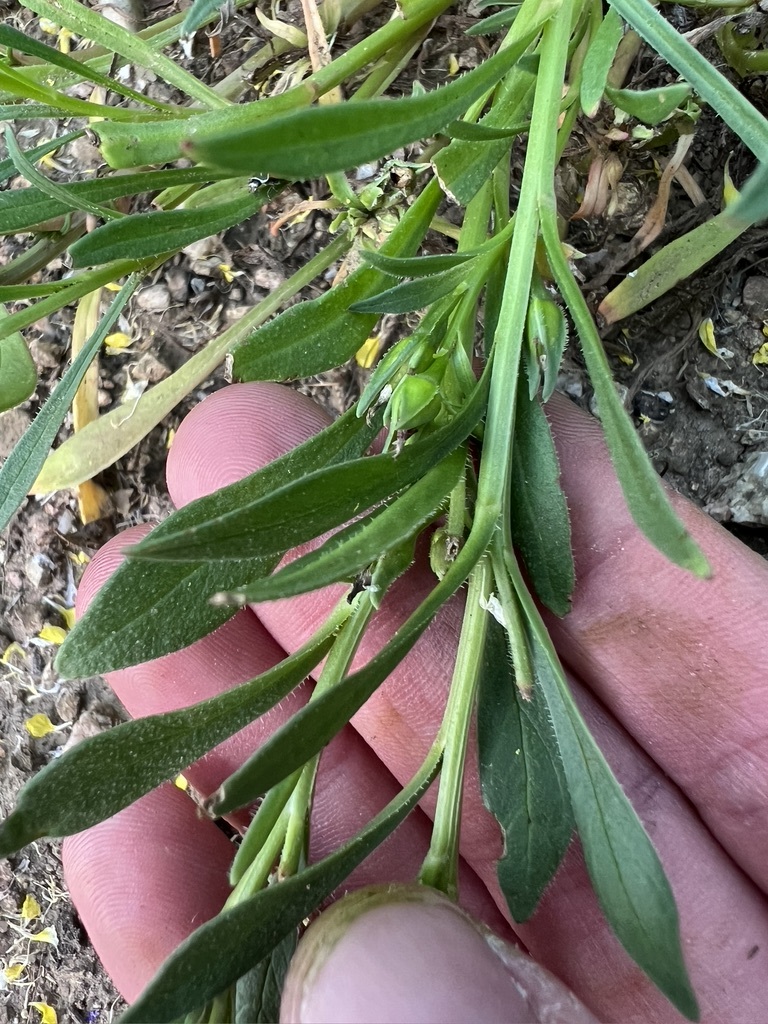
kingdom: Plantae
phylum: Tracheophyta
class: Magnoliopsida
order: Caryophyllales
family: Montiaceae
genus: Calandrinia
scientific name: Calandrinia menziesii
